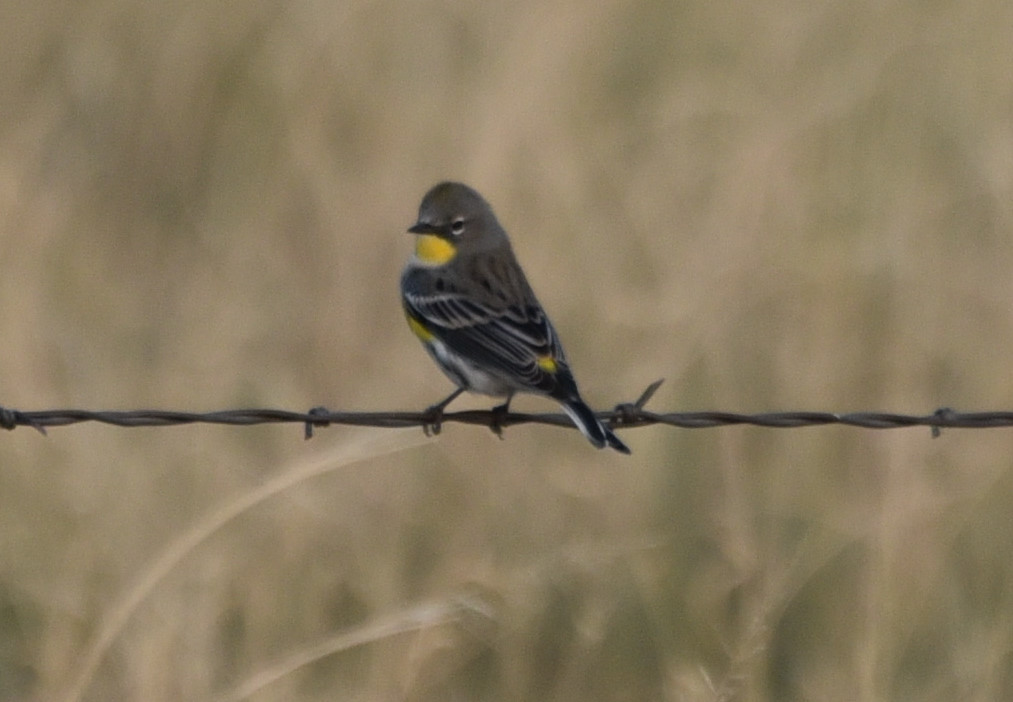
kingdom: Animalia
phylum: Chordata
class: Aves
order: Passeriformes
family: Parulidae
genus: Setophaga
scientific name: Setophaga coronata
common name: Myrtle warbler
